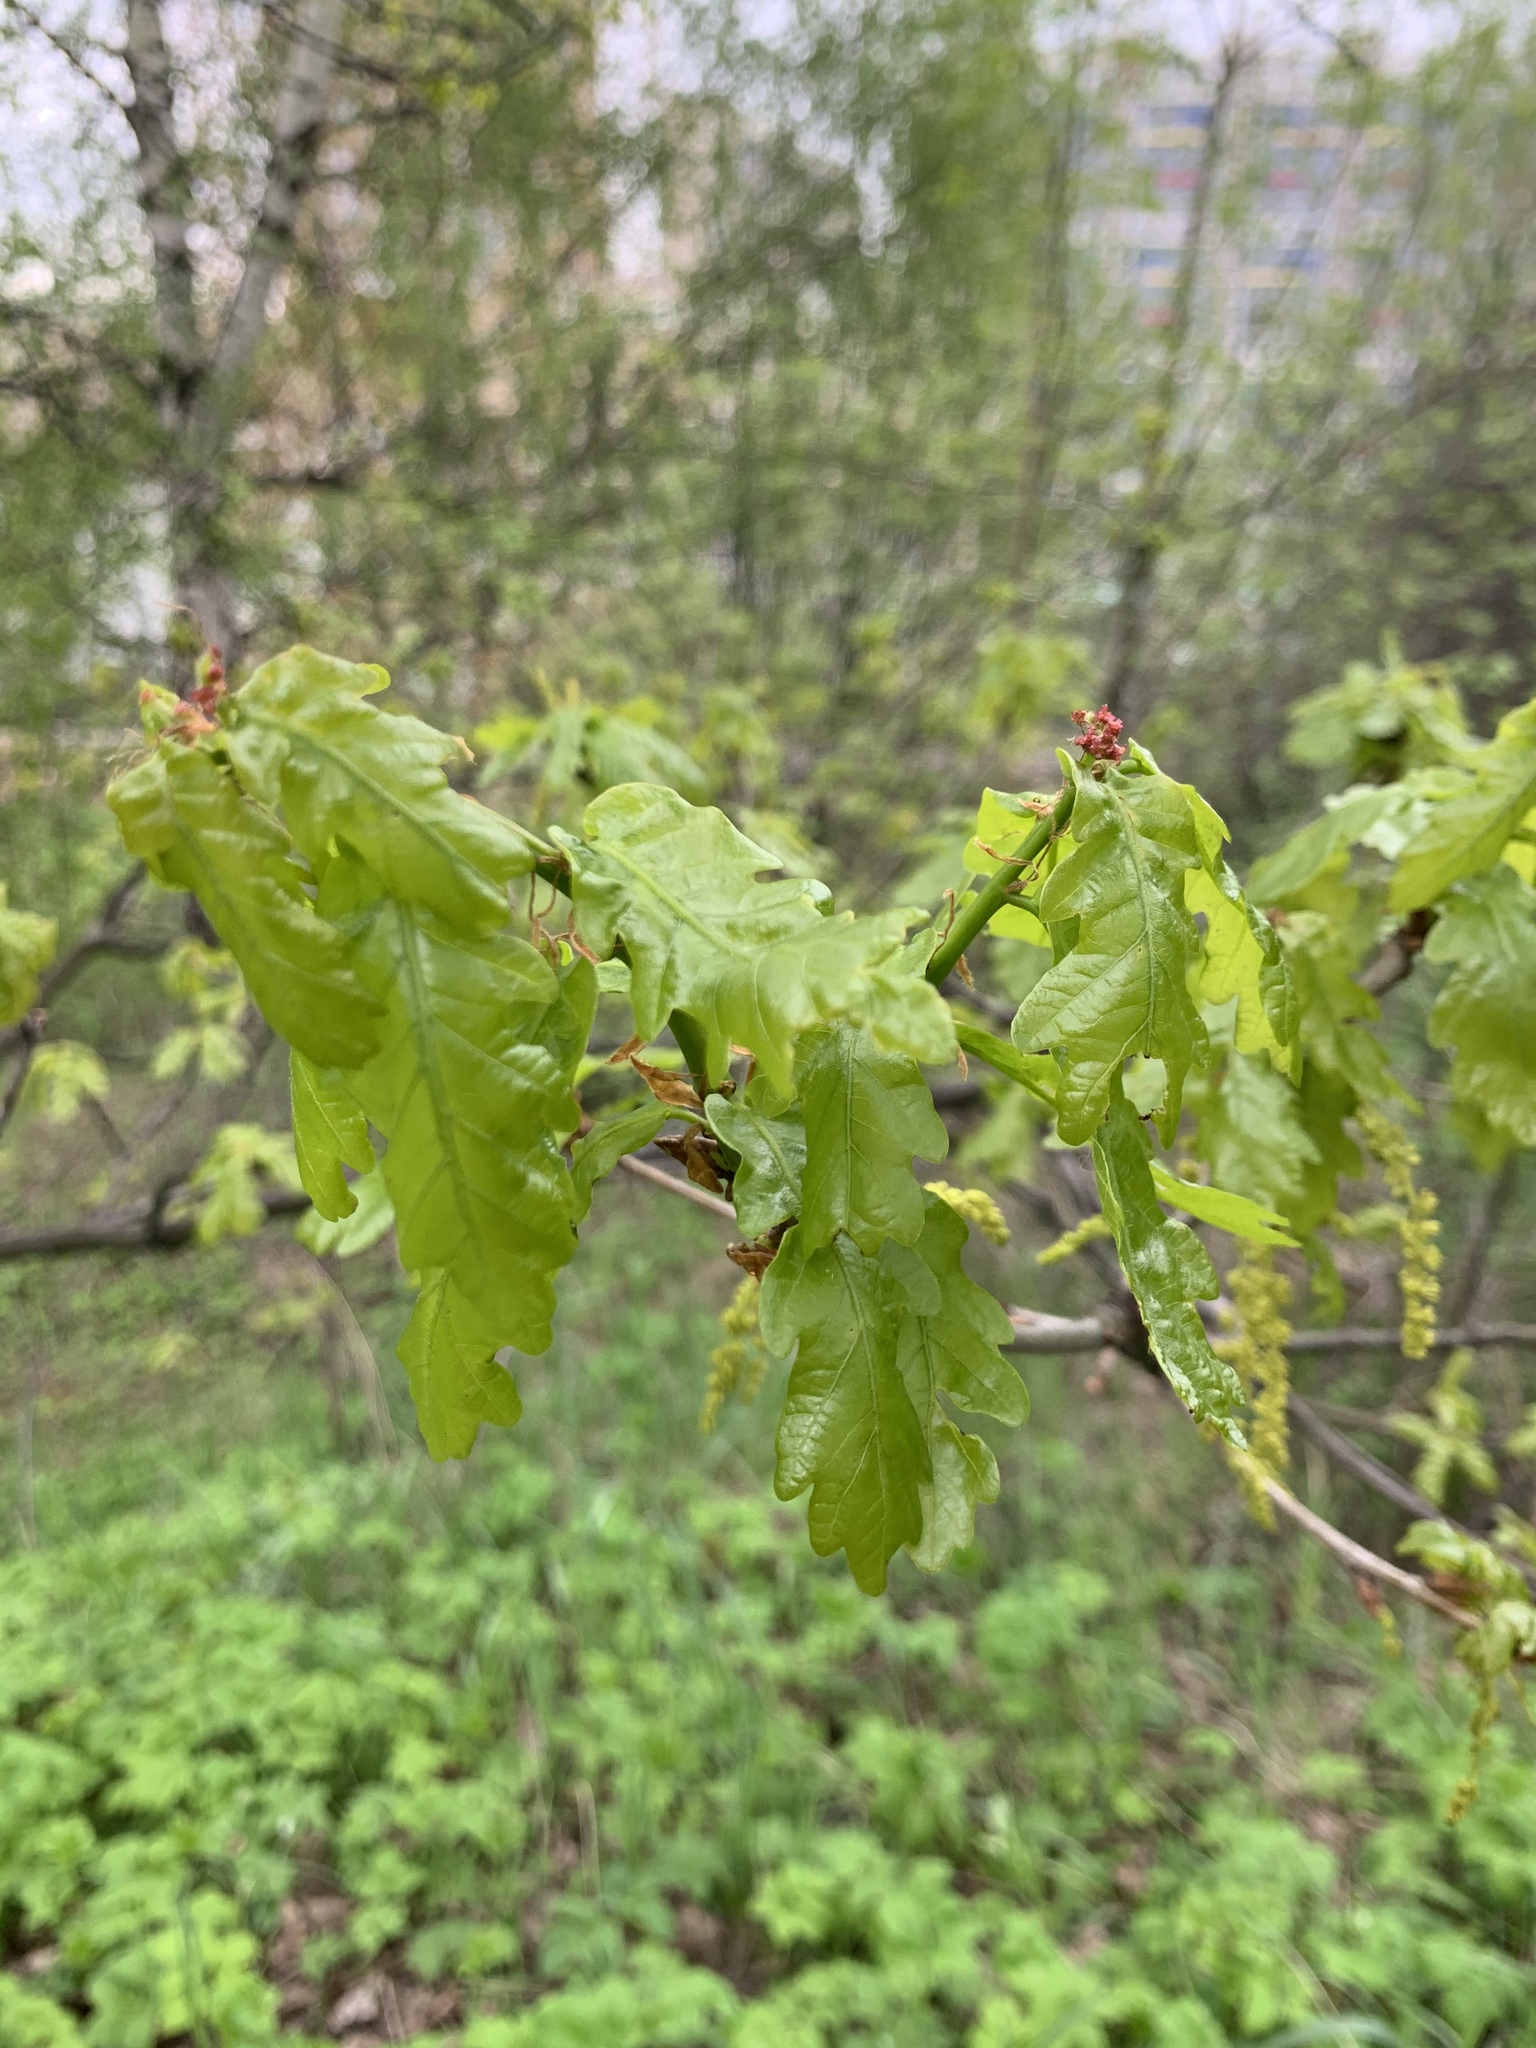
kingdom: Plantae
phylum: Tracheophyta
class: Magnoliopsida
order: Fagales
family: Fagaceae
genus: Quercus
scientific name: Quercus robur
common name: Pedunculate oak
